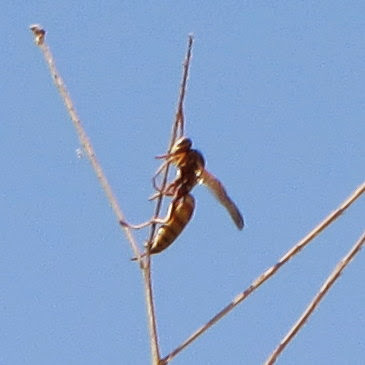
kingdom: Animalia
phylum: Arthropoda
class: Insecta
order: Hymenoptera
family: Eumenidae
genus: Polistes
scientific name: Polistes aurifer
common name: Paper wasp
